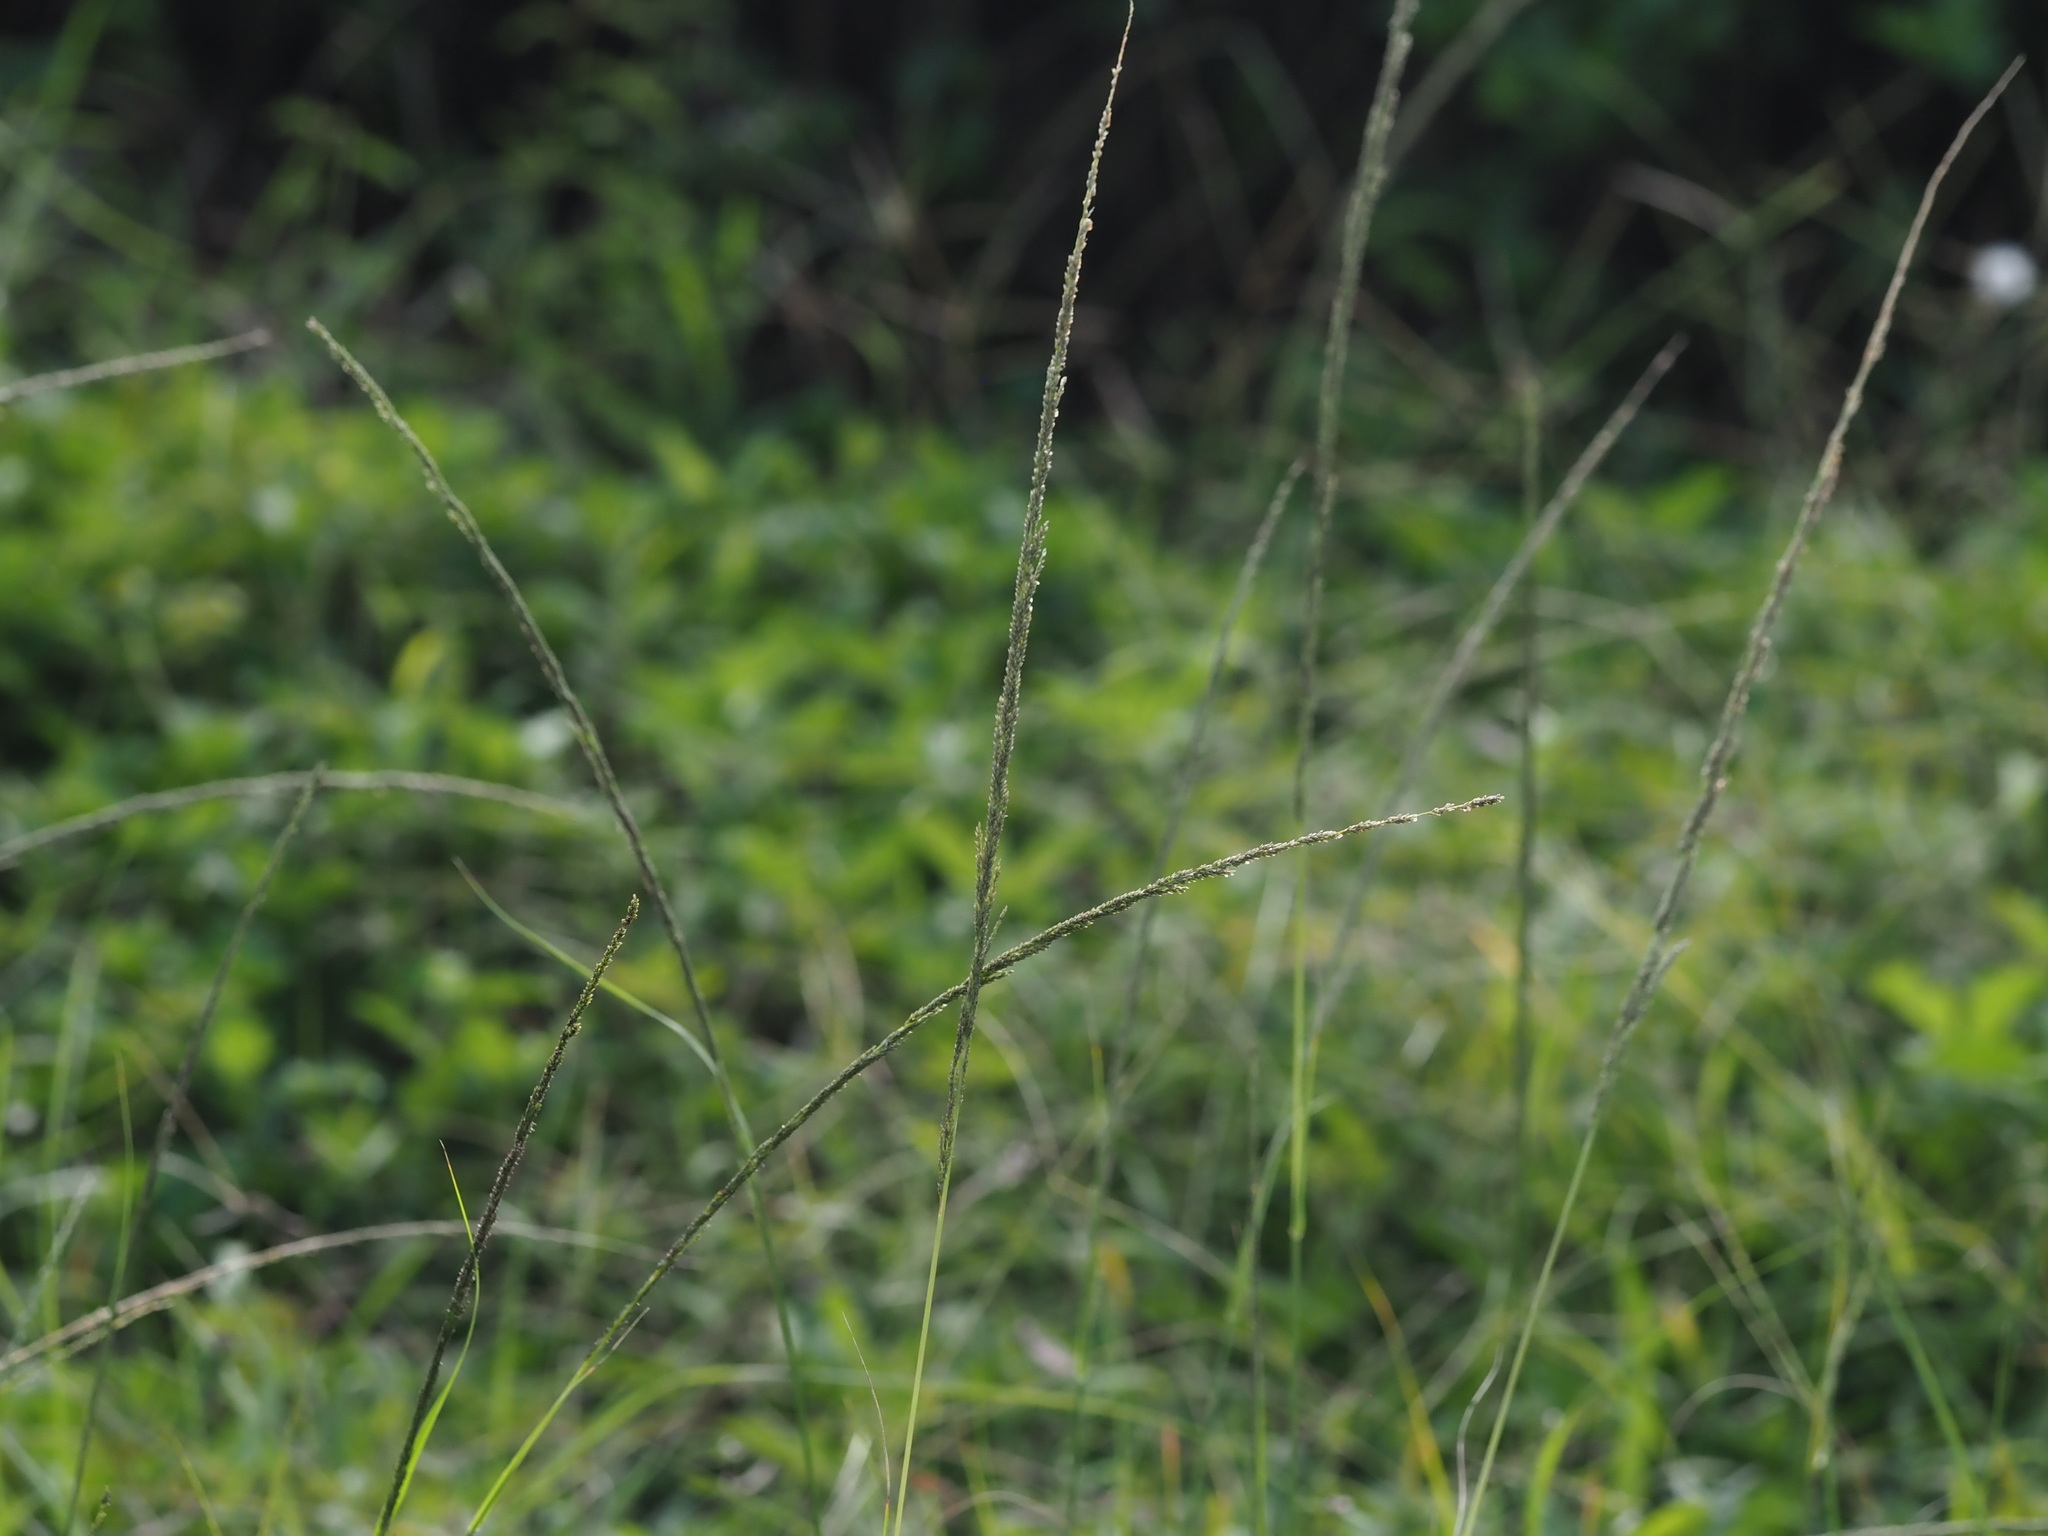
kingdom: Plantae
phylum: Tracheophyta
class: Liliopsida
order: Poales
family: Poaceae
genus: Sporobolus
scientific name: Sporobolus elongatus
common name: Rat tail grass
